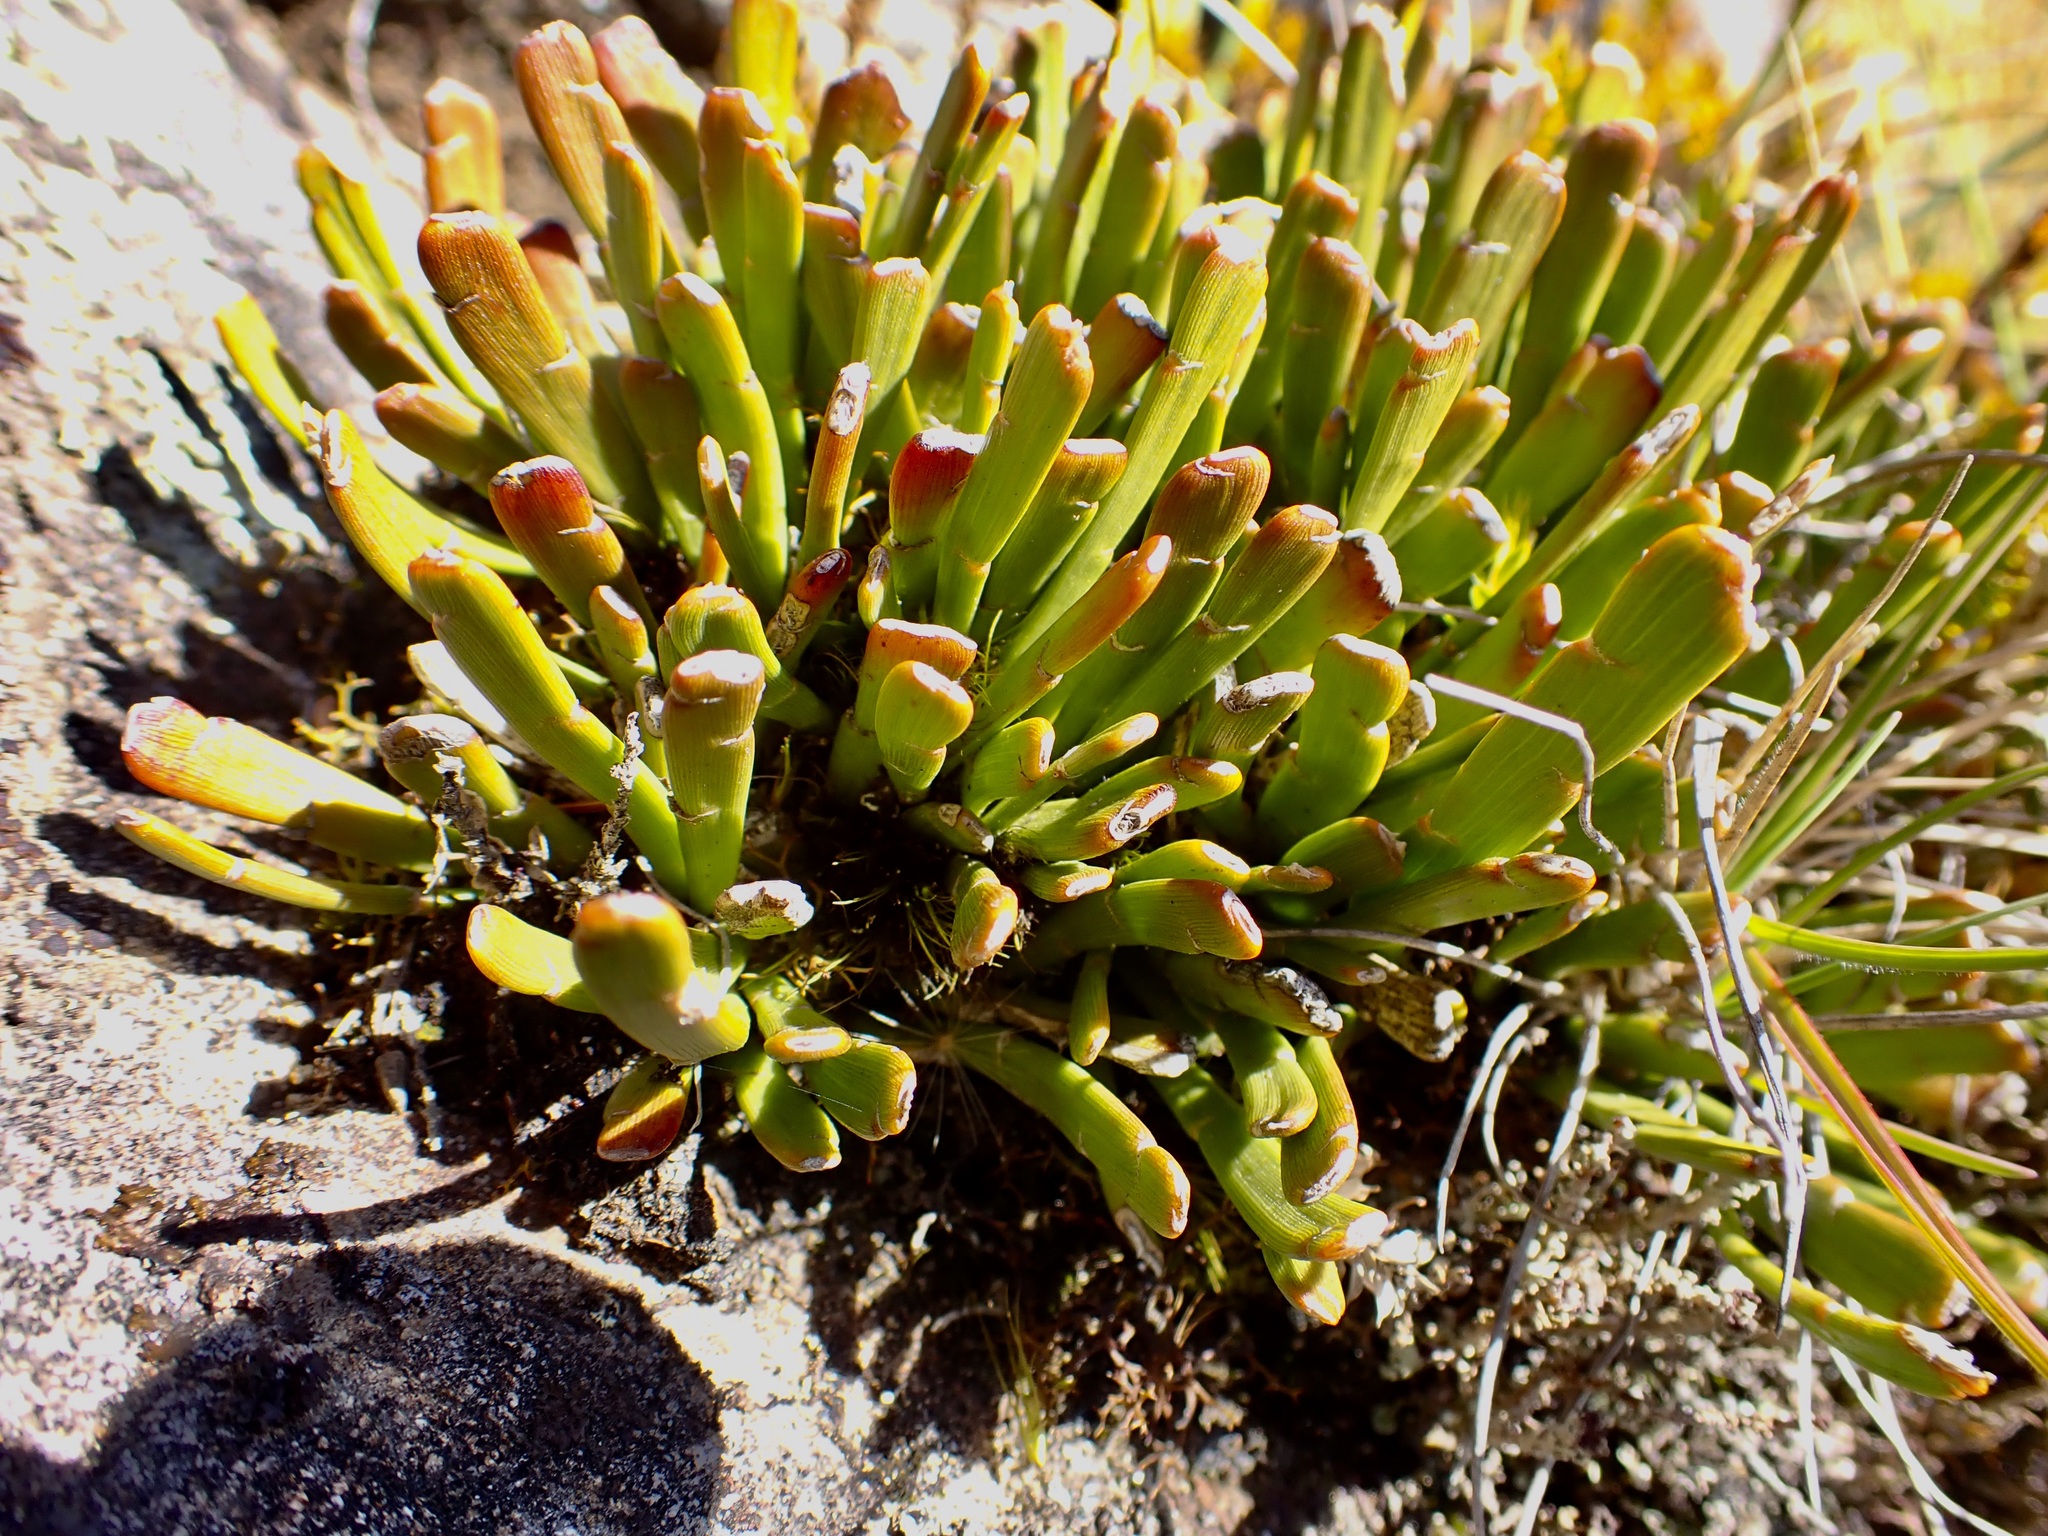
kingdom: Plantae
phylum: Tracheophyta
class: Magnoliopsida
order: Fabales
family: Fabaceae
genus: Carmichaelia
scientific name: Carmichaelia monroi
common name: Stout dwarf broom
